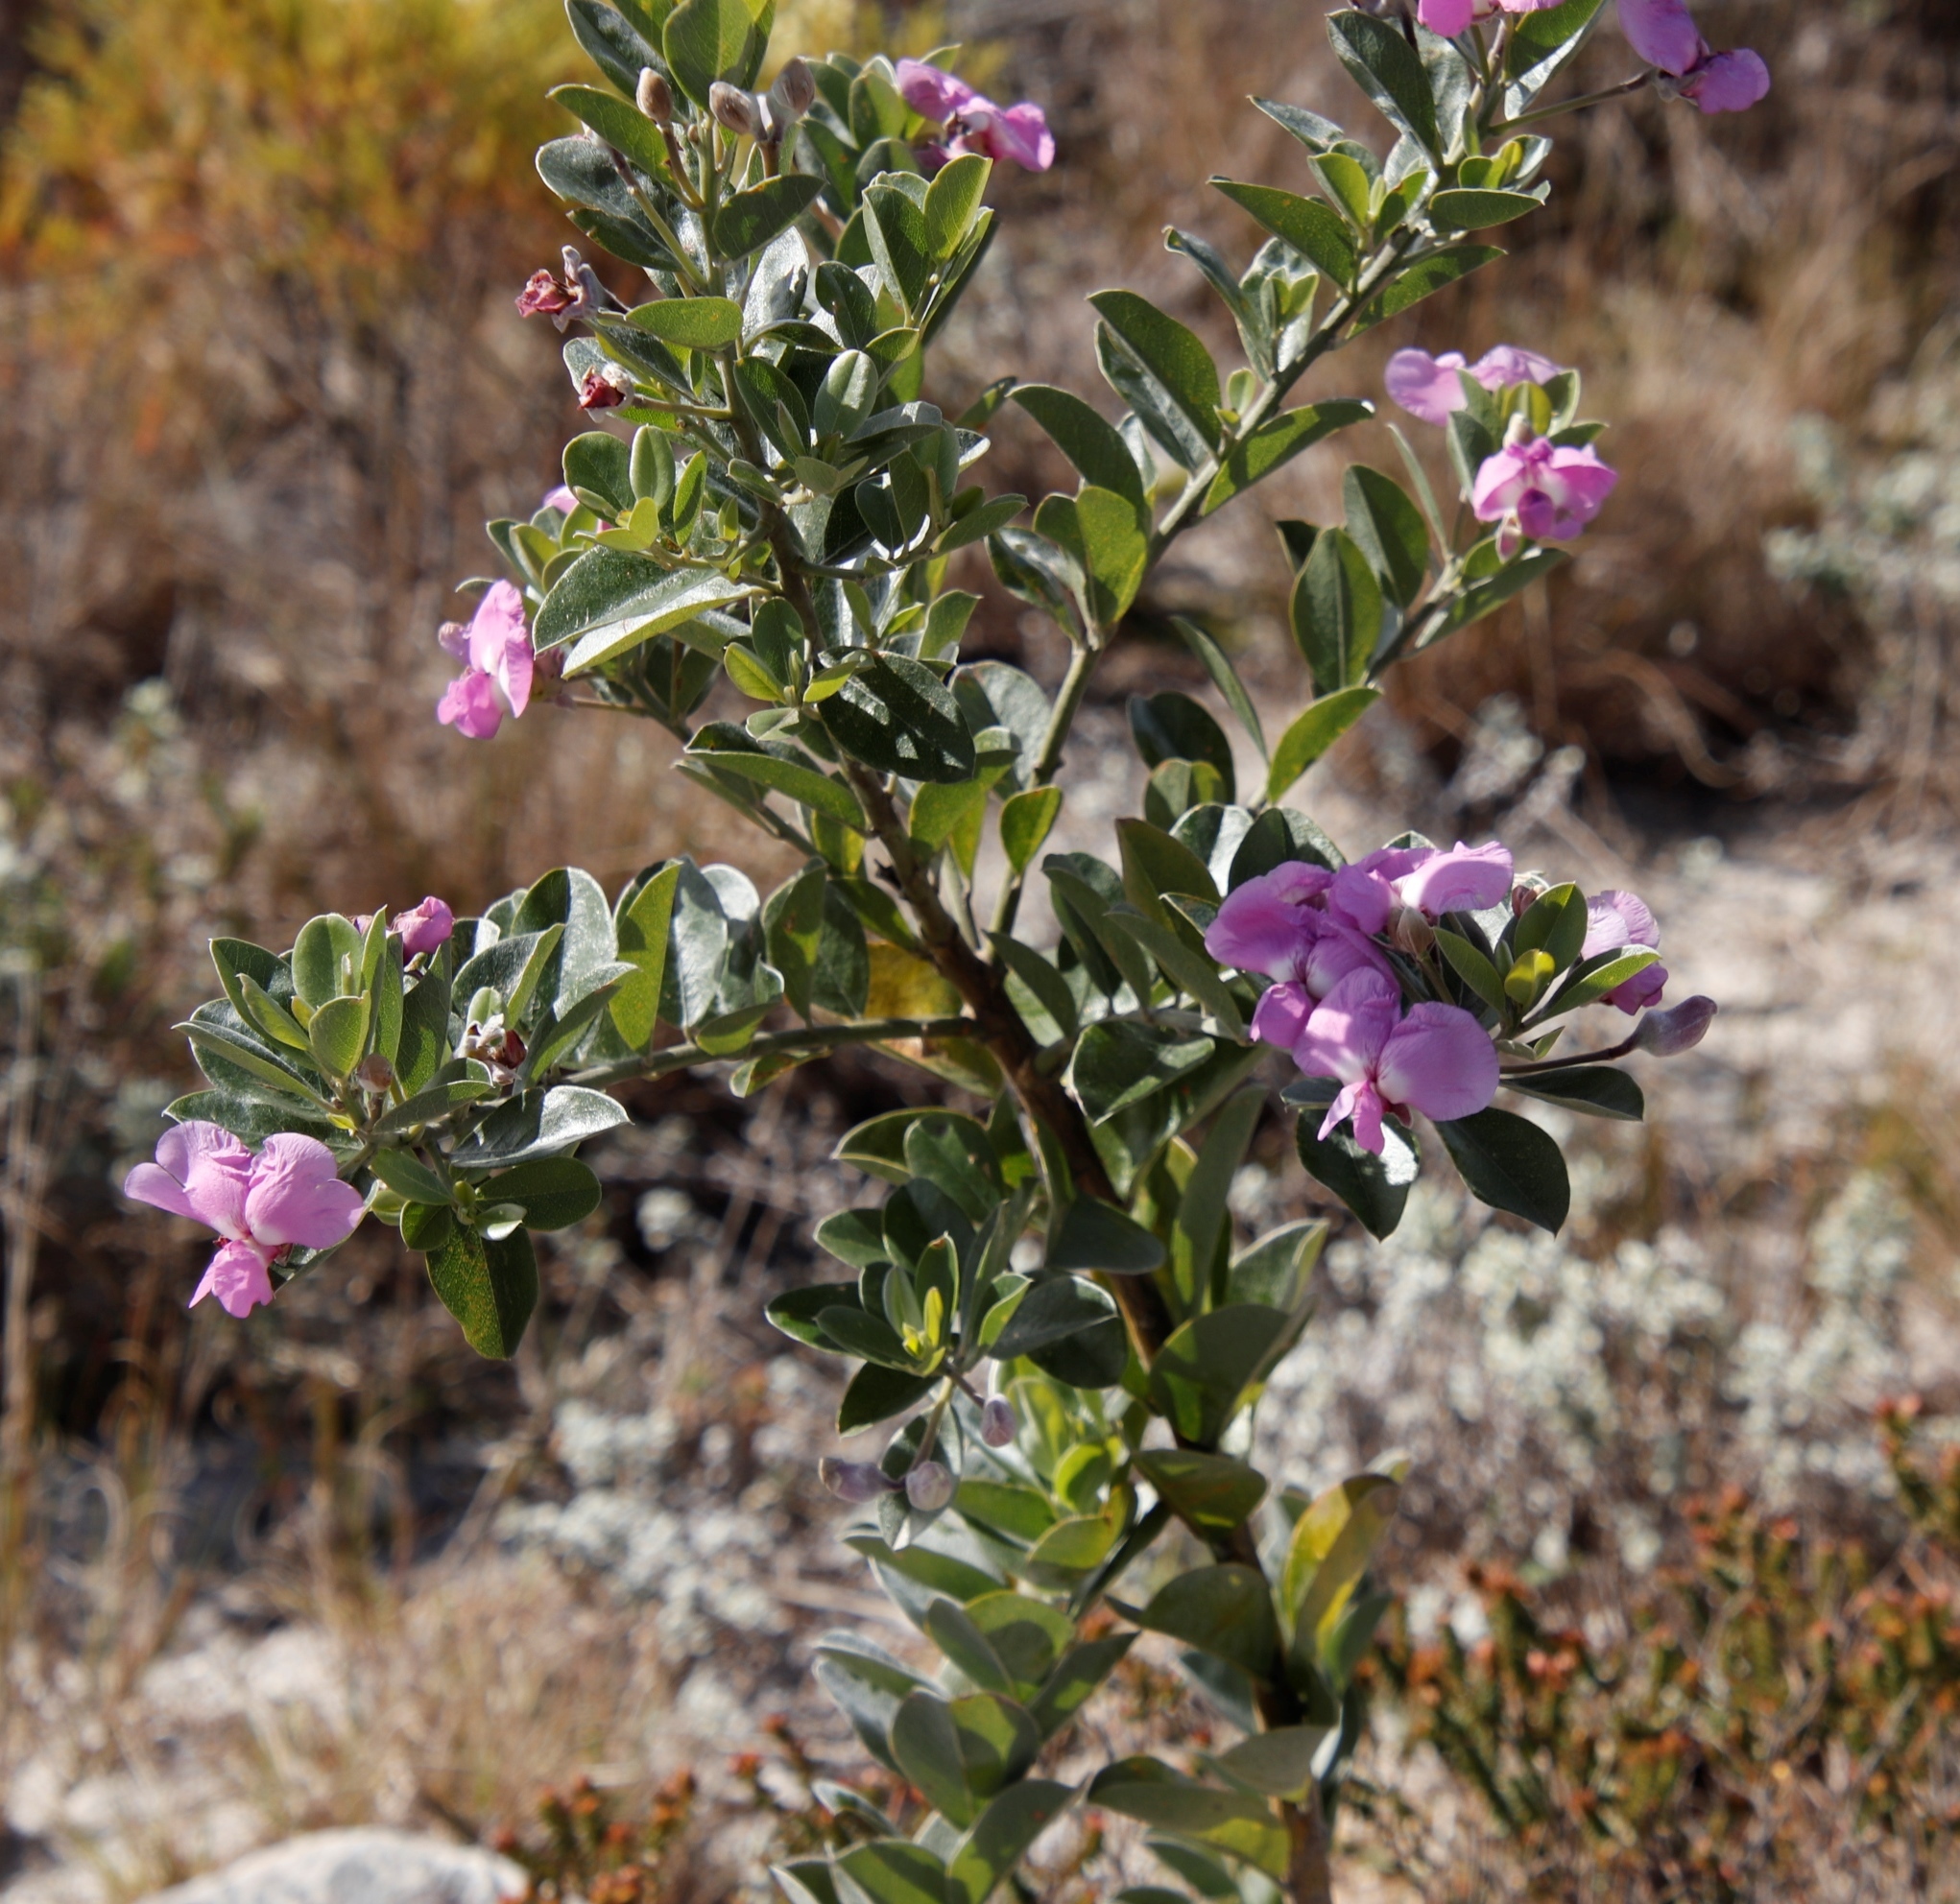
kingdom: Plantae
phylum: Tracheophyta
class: Magnoliopsida
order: Fabales
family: Fabaceae
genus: Podalyria
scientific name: Podalyria calyptrata
